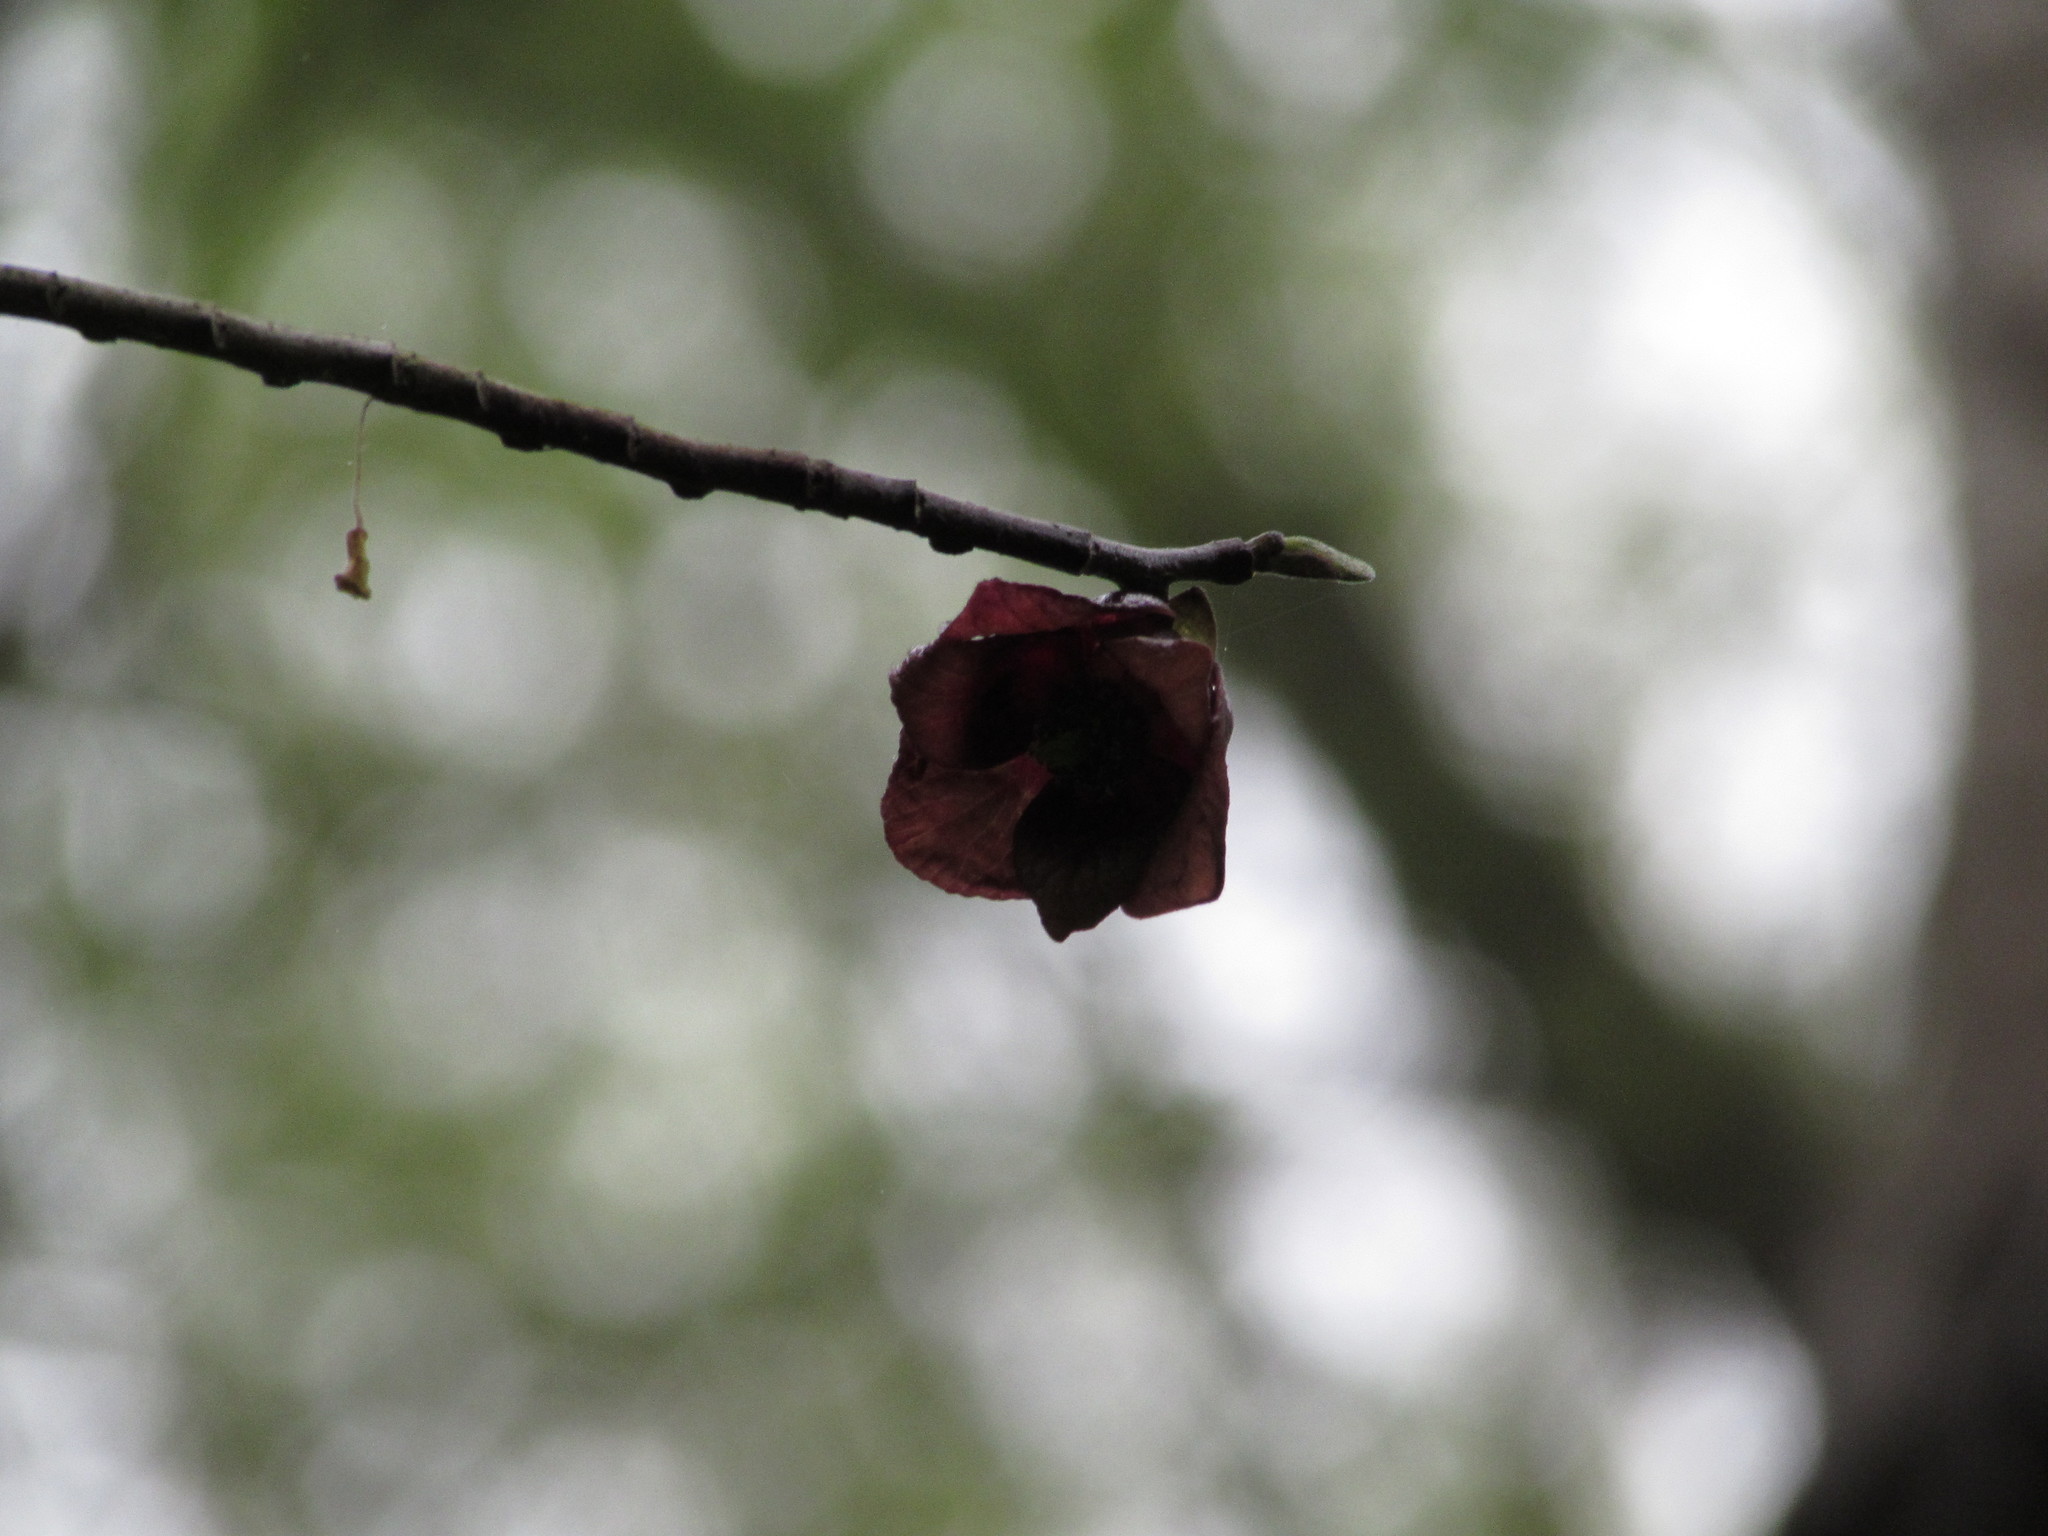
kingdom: Plantae
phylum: Tracheophyta
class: Magnoliopsida
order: Magnoliales
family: Annonaceae
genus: Asimina
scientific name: Asimina triloba
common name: Dog-banana
